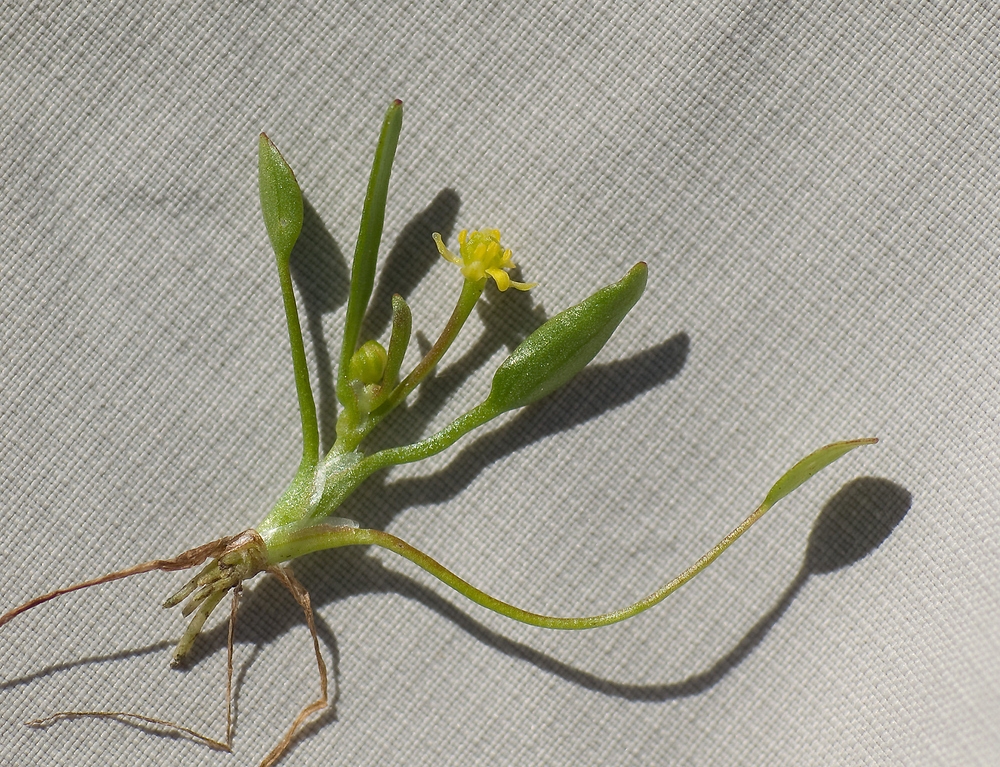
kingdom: Plantae
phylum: Tracheophyta
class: Magnoliopsida
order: Ranunculales
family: Ranunculaceae
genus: Ranunculus
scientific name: Ranunculus revelierei
